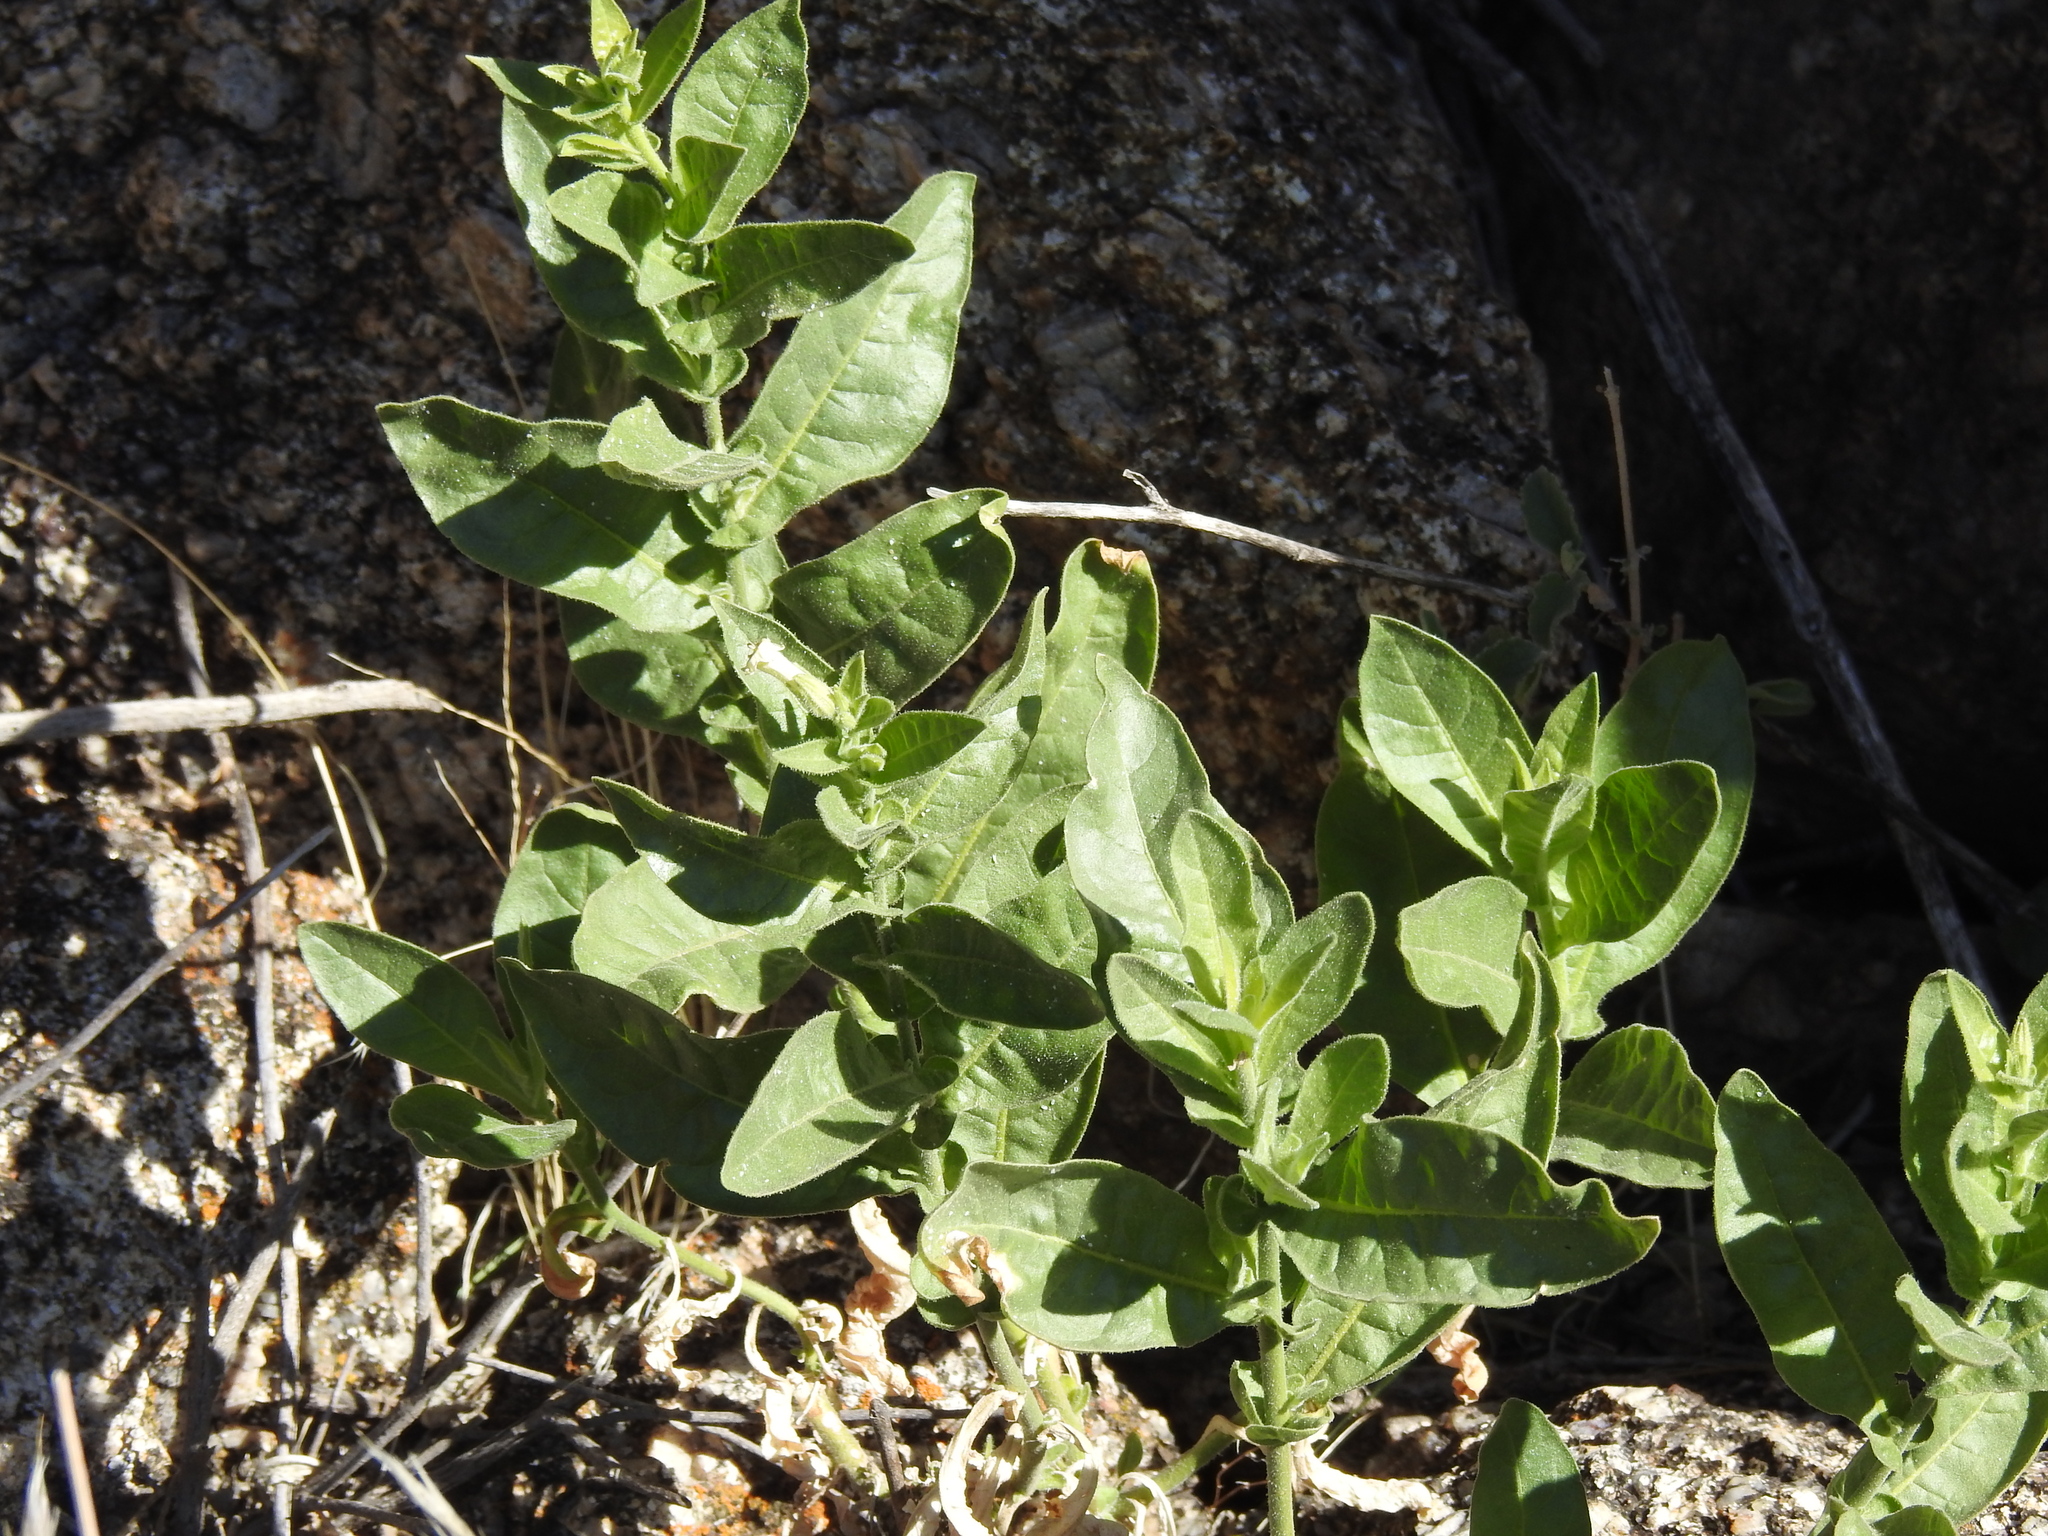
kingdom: Plantae
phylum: Tracheophyta
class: Magnoliopsida
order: Solanales
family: Solanaceae
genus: Nicotiana
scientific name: Nicotiana obtusifolia
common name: Desert tobacco
